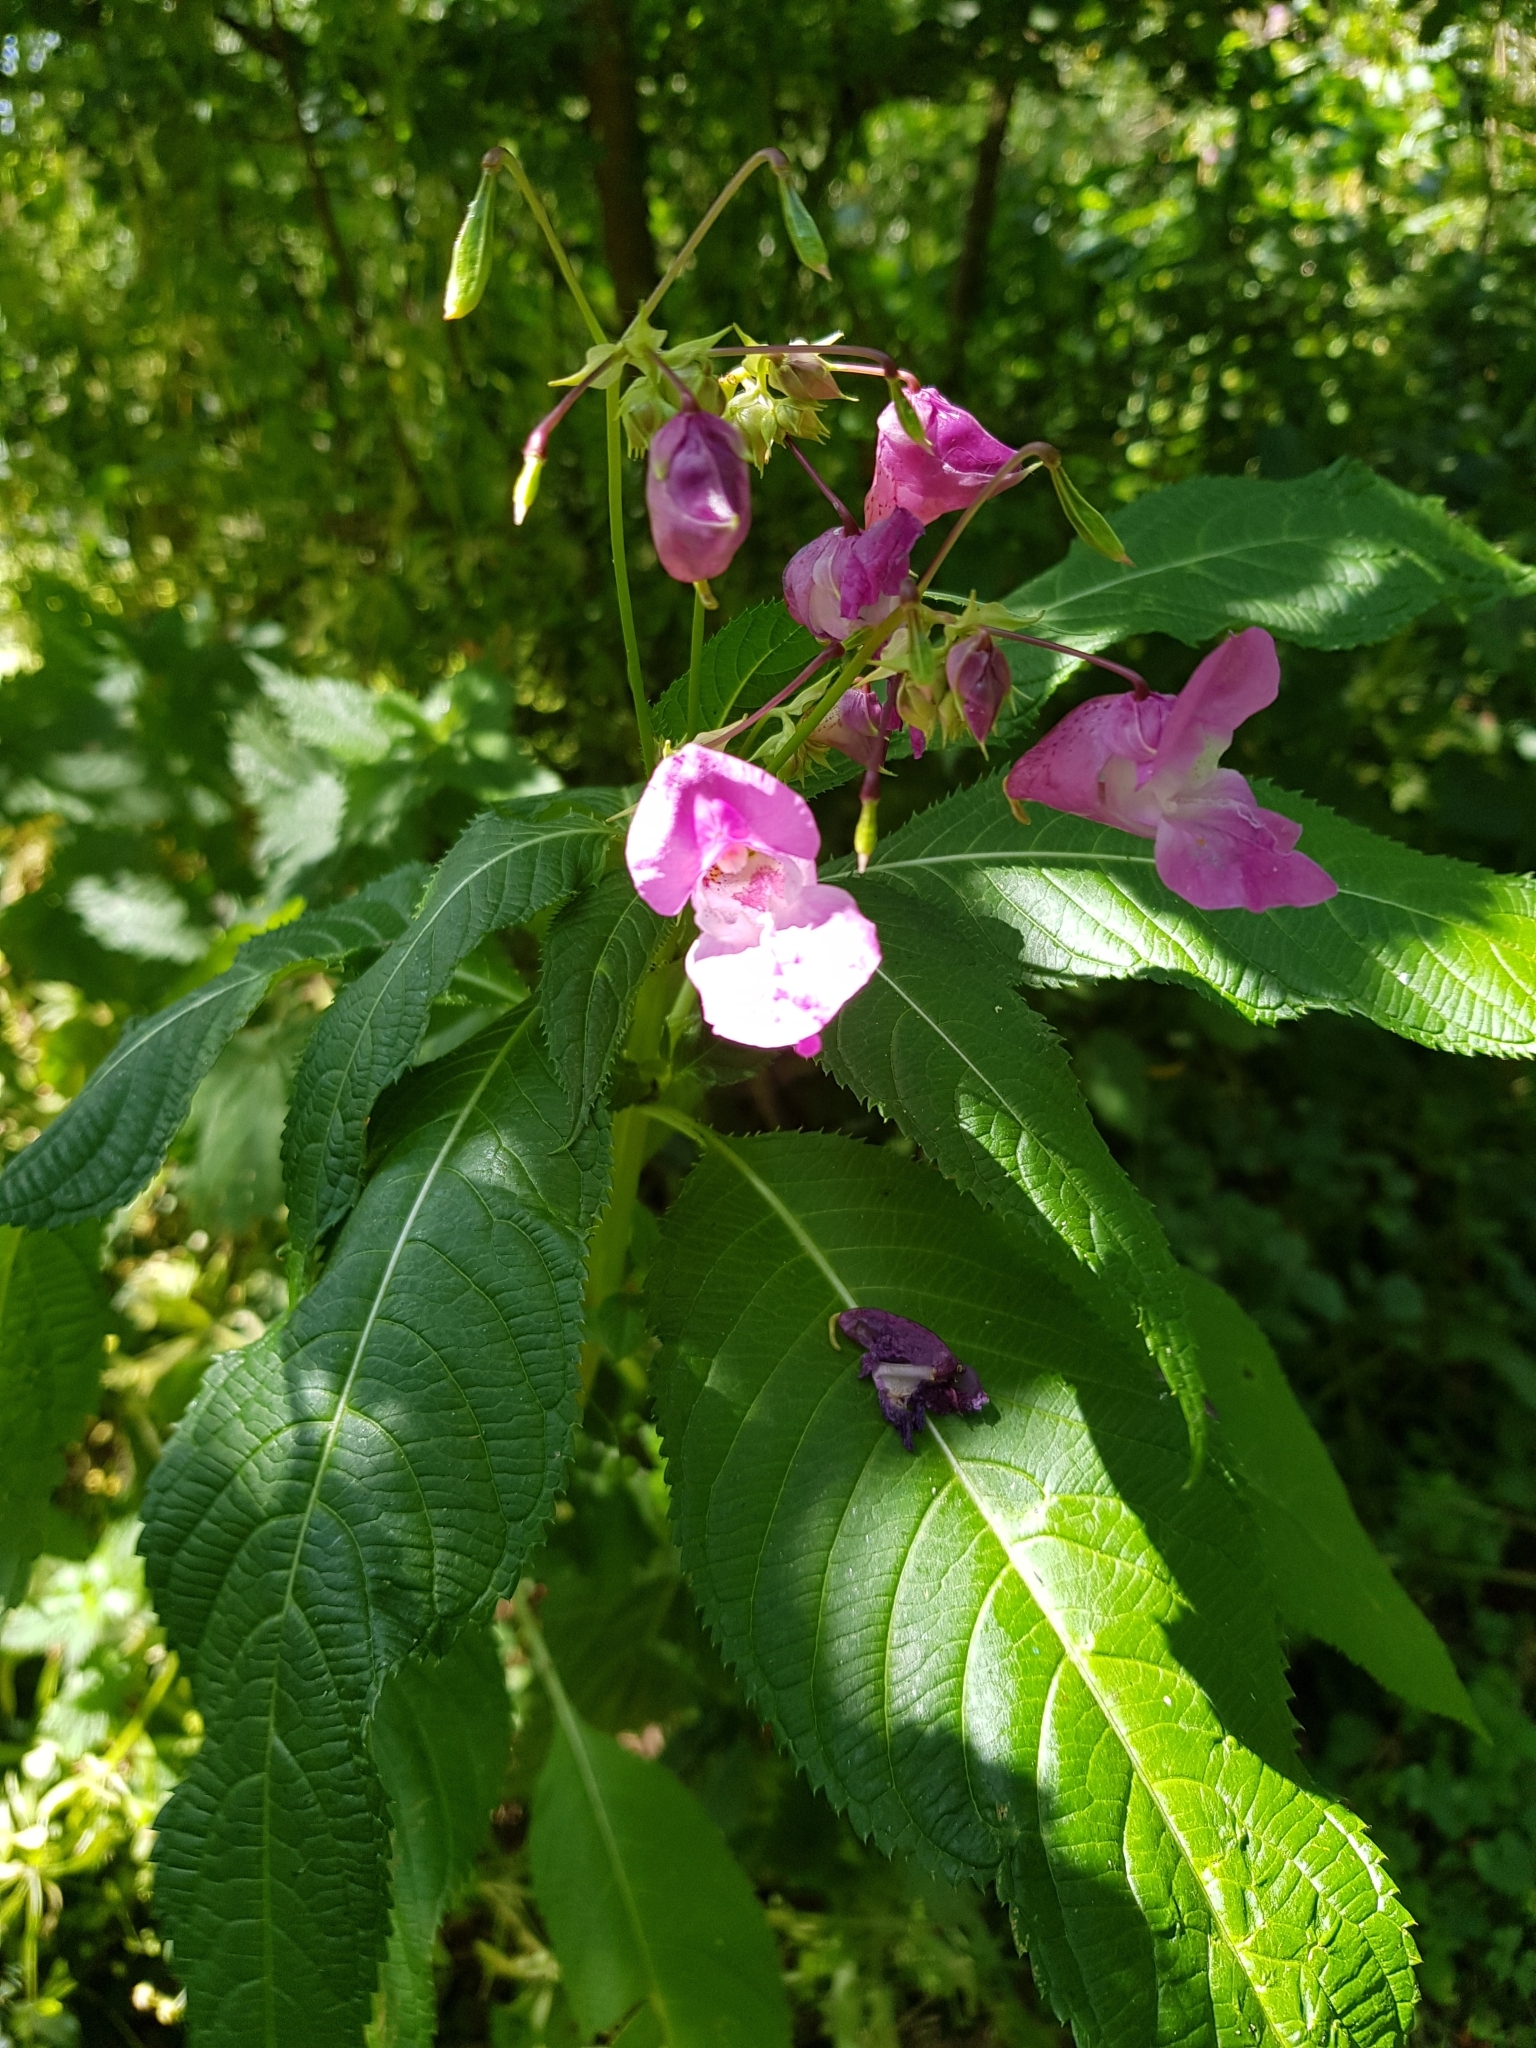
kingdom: Plantae
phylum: Tracheophyta
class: Magnoliopsida
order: Ericales
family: Balsaminaceae
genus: Impatiens
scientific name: Impatiens glandulifera
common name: Himalayan balsam
